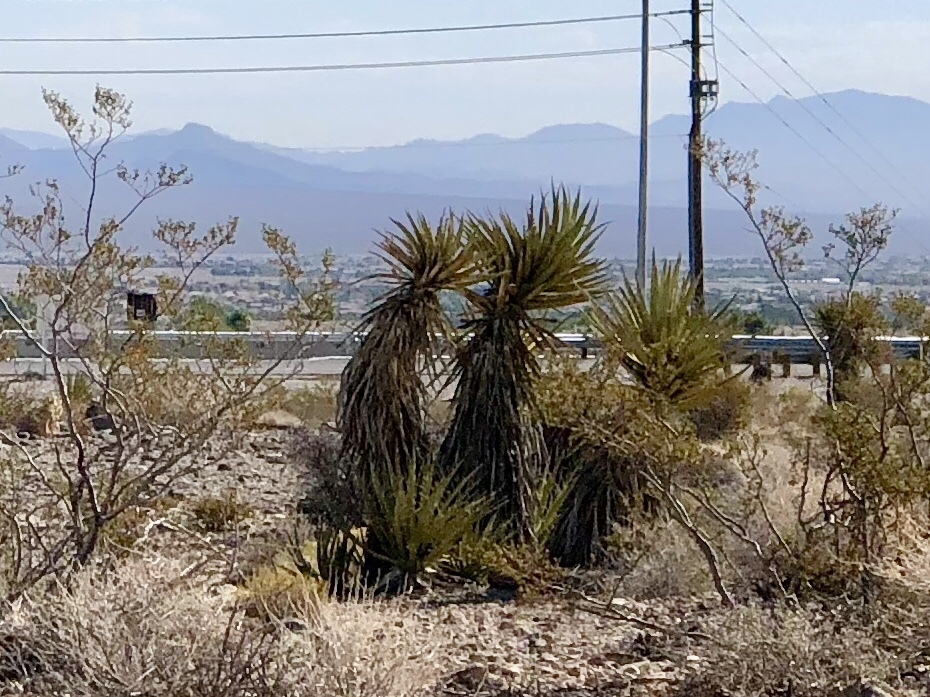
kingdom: Plantae
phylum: Tracheophyta
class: Liliopsida
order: Asparagales
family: Asparagaceae
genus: Yucca
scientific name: Yucca schidigera
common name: Mojave yucca
